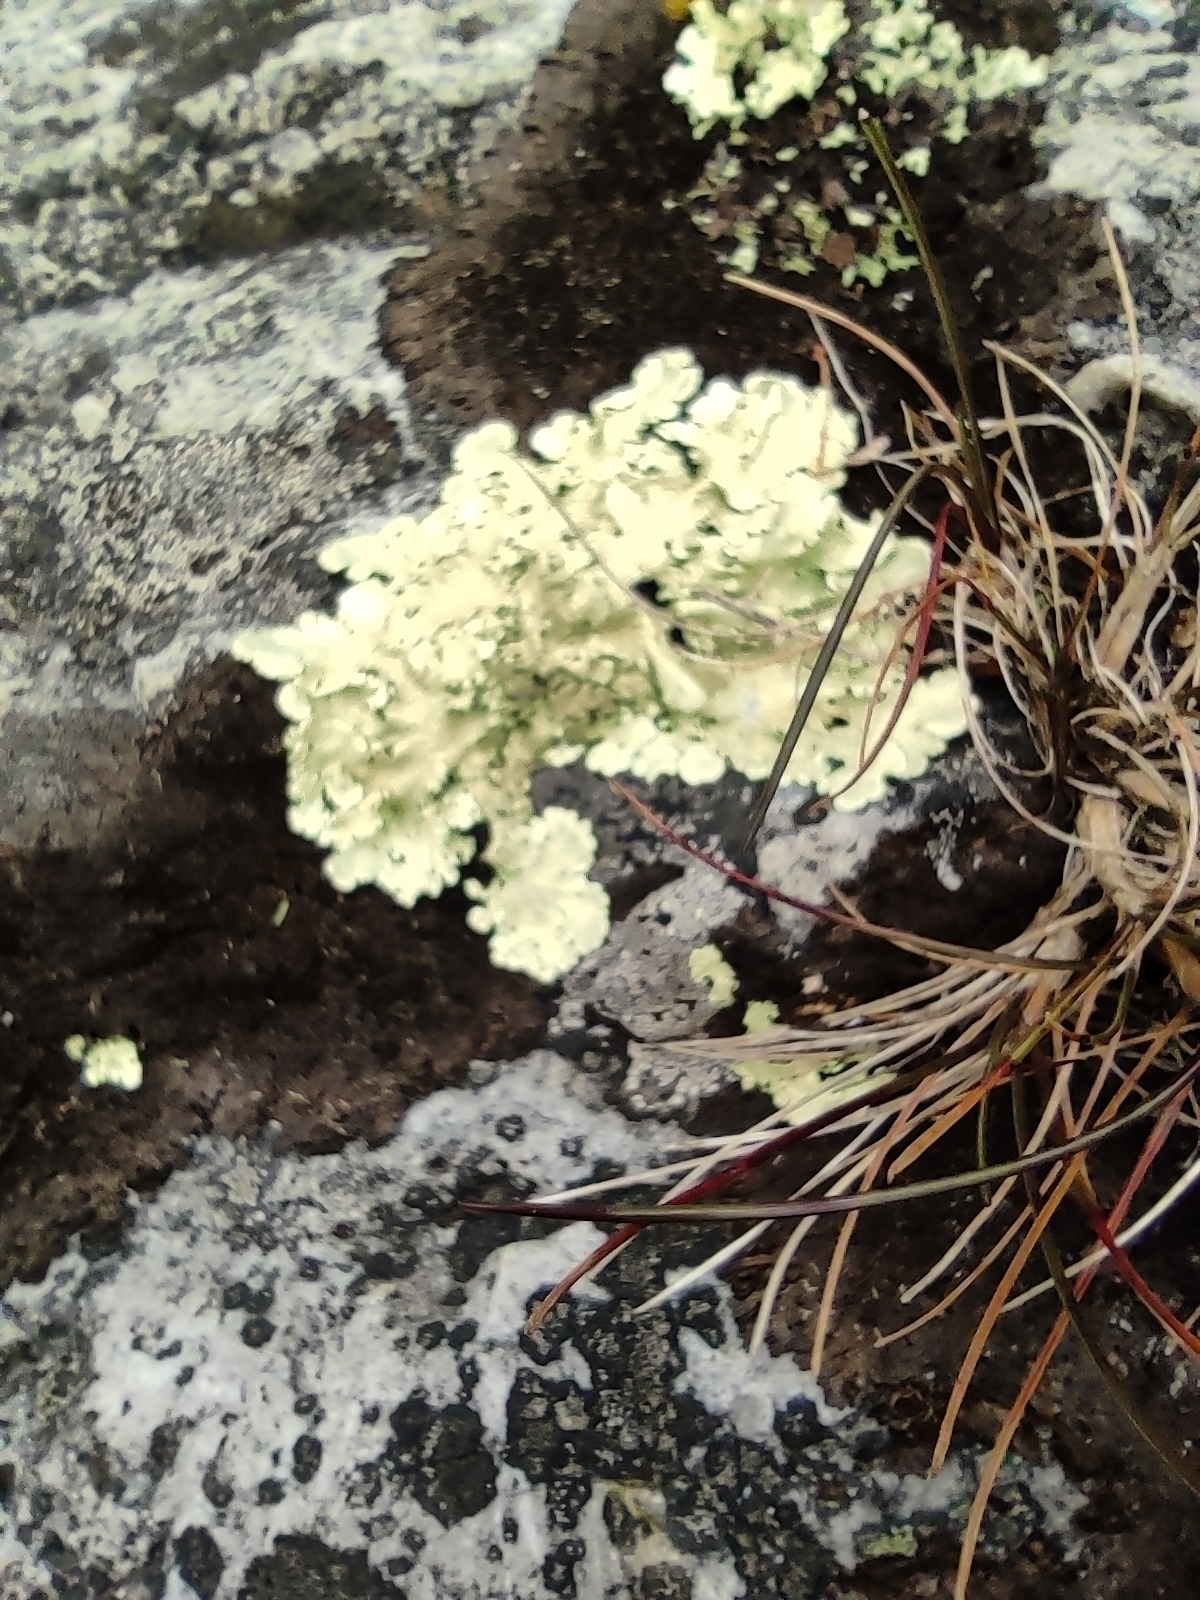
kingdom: Fungi
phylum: Ascomycota
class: Lecanoromycetes
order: Lecanorales
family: Parmeliaceae
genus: Flavoparmelia
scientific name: Flavoparmelia caperata
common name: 40-mile per hour lichen
